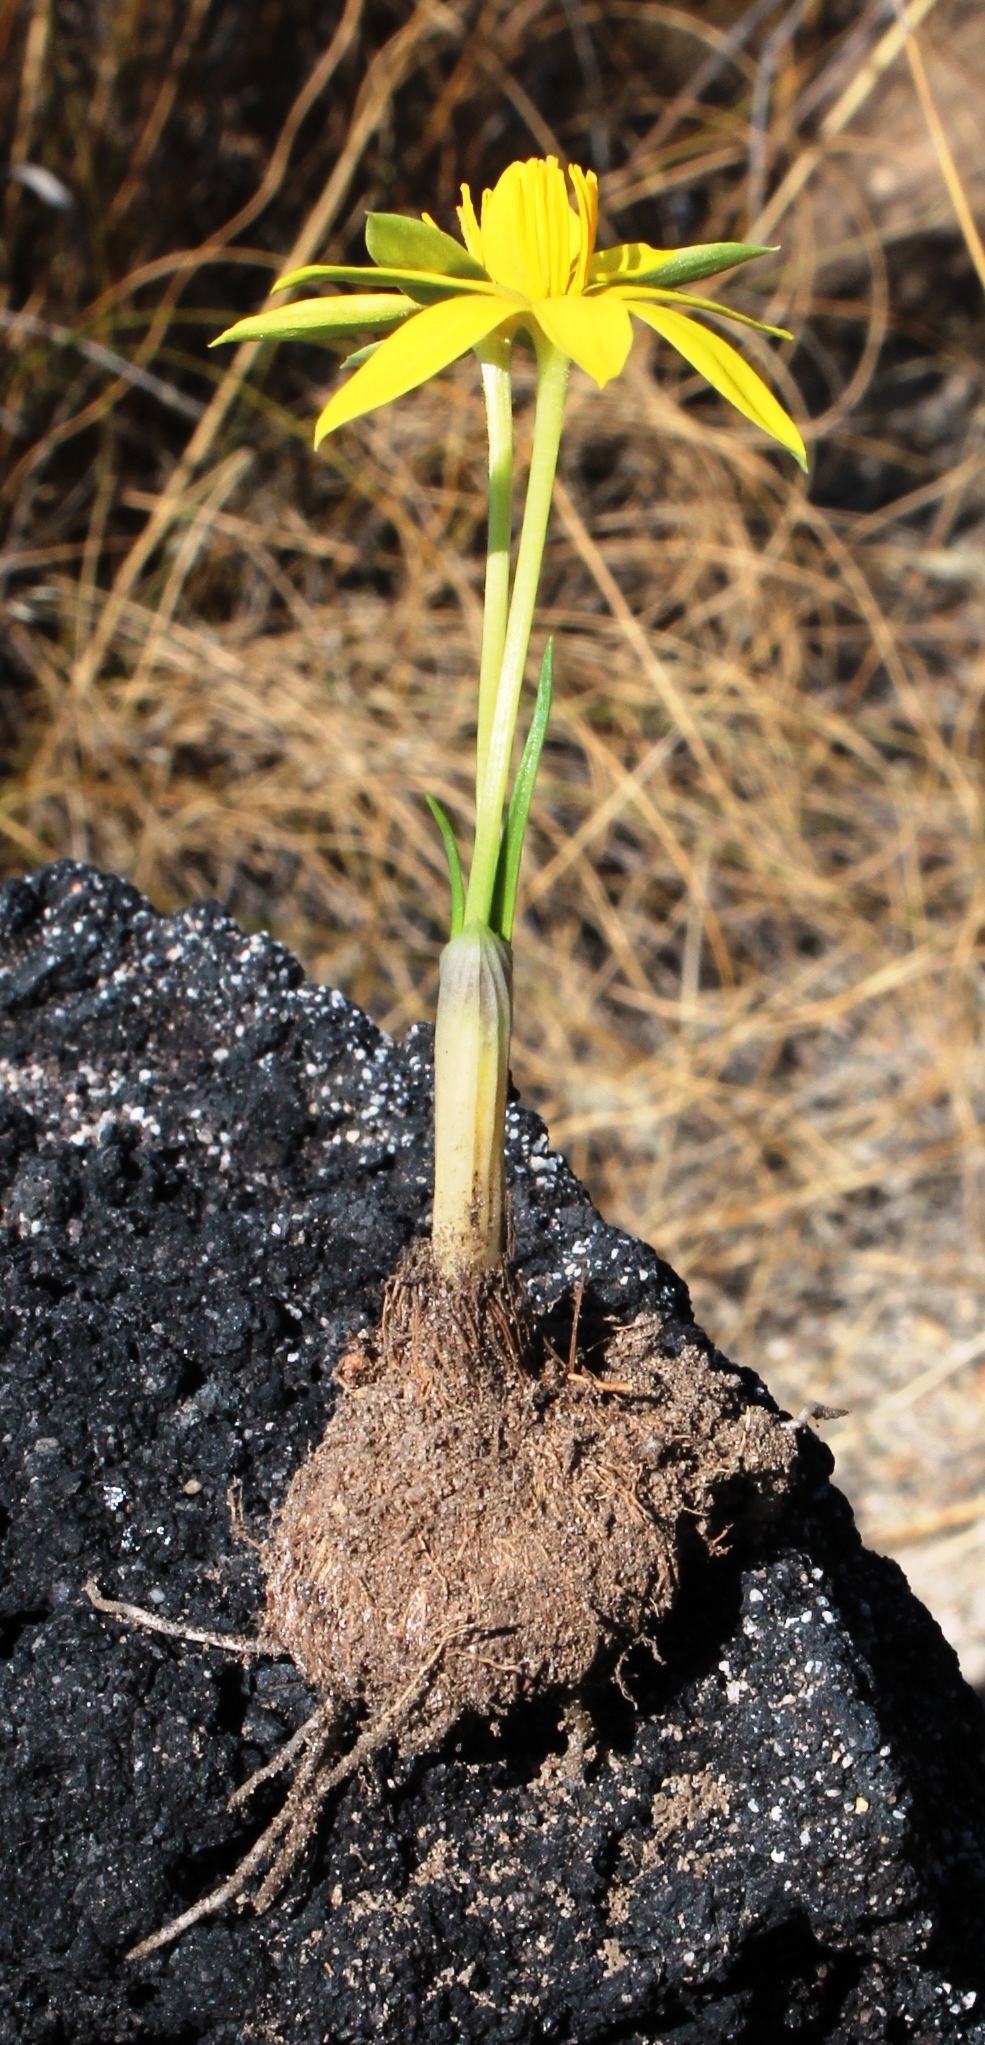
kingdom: Plantae
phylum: Tracheophyta
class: Liliopsida
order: Asparagales
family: Hypoxidaceae
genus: Empodium
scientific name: Empodium plicatum
